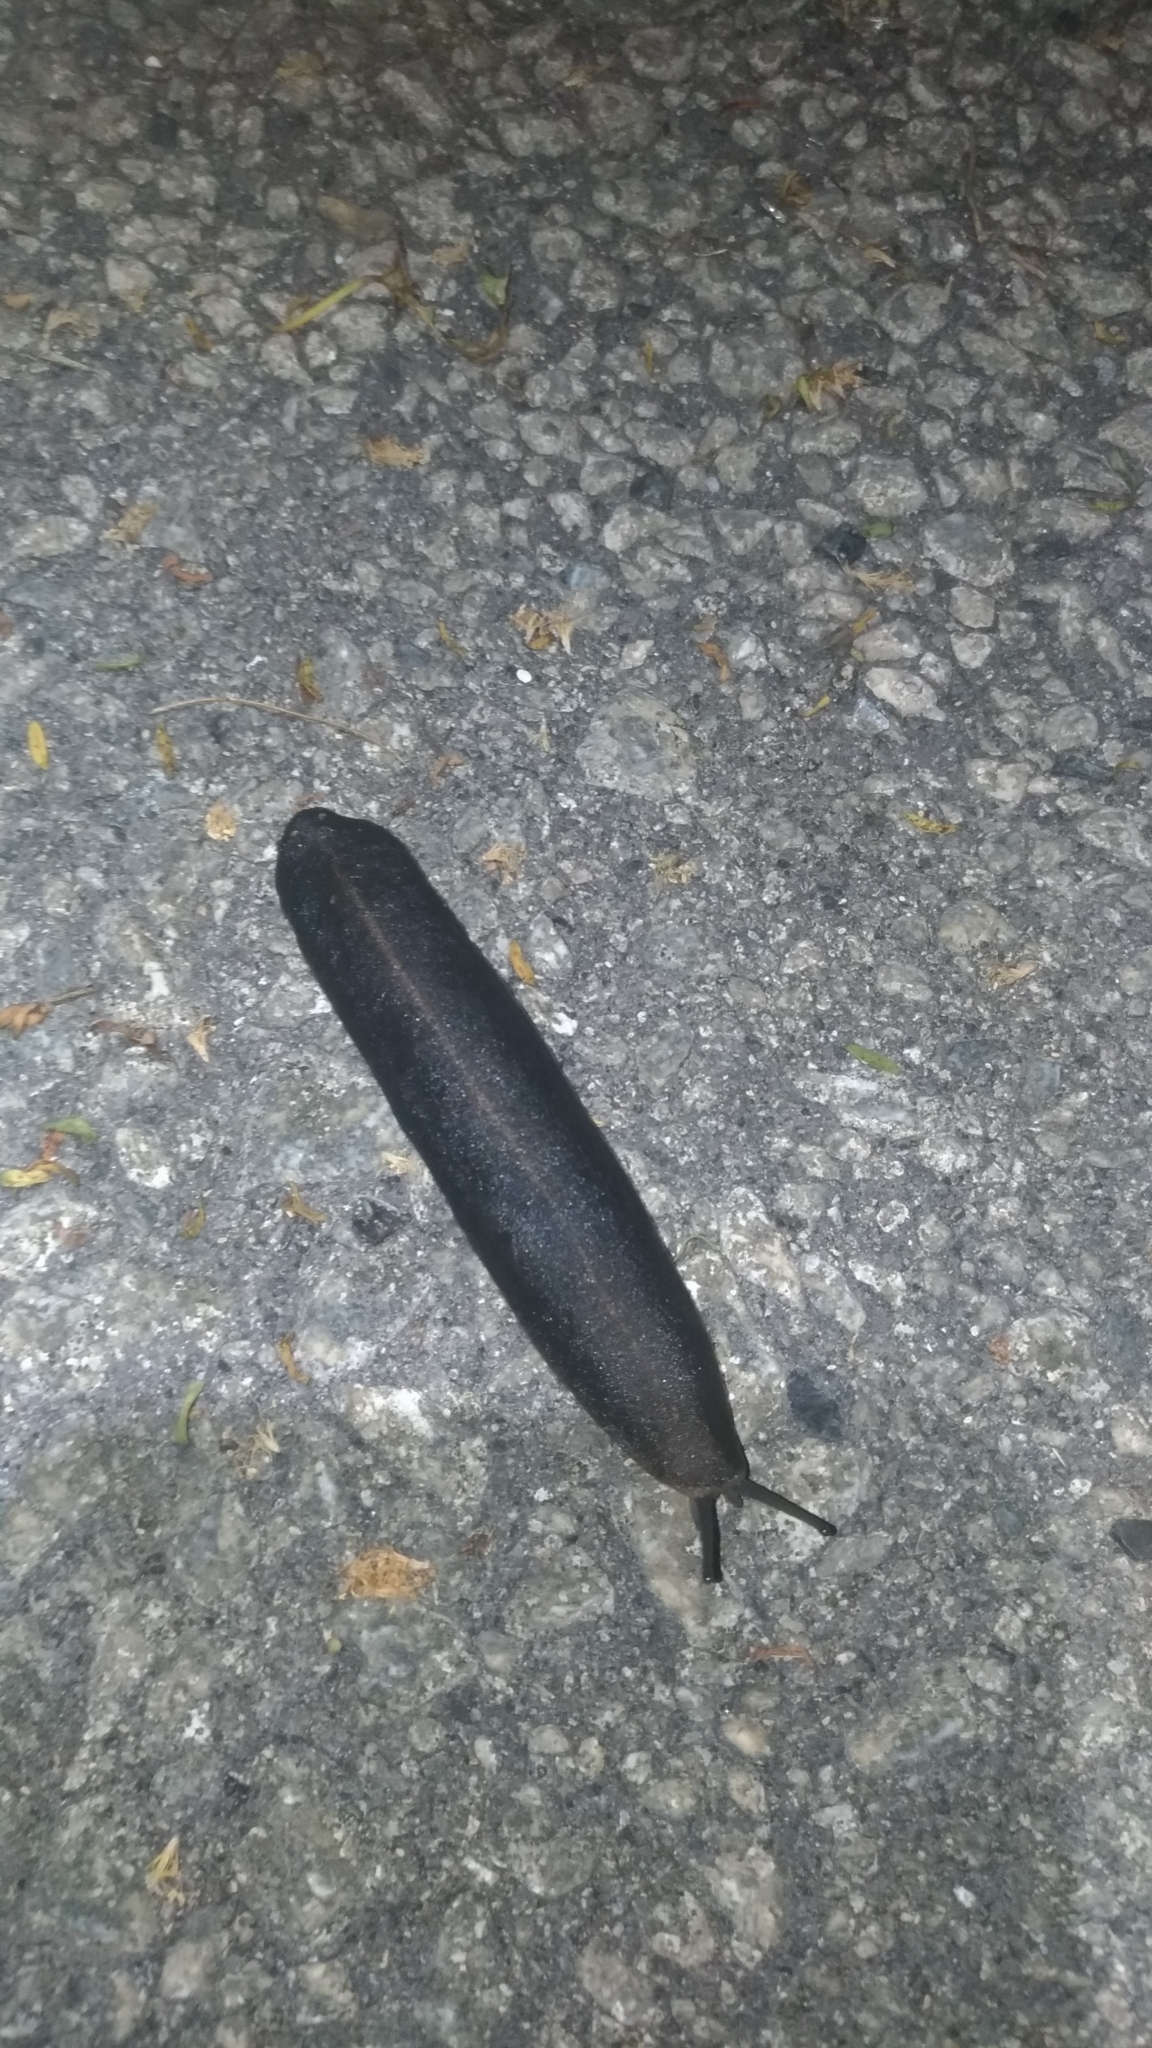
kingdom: Animalia
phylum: Mollusca
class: Gastropoda
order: Systellommatophora
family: Veronicellidae
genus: Laevicaulis
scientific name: Laevicaulis alte
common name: Tropical leatherleaf
